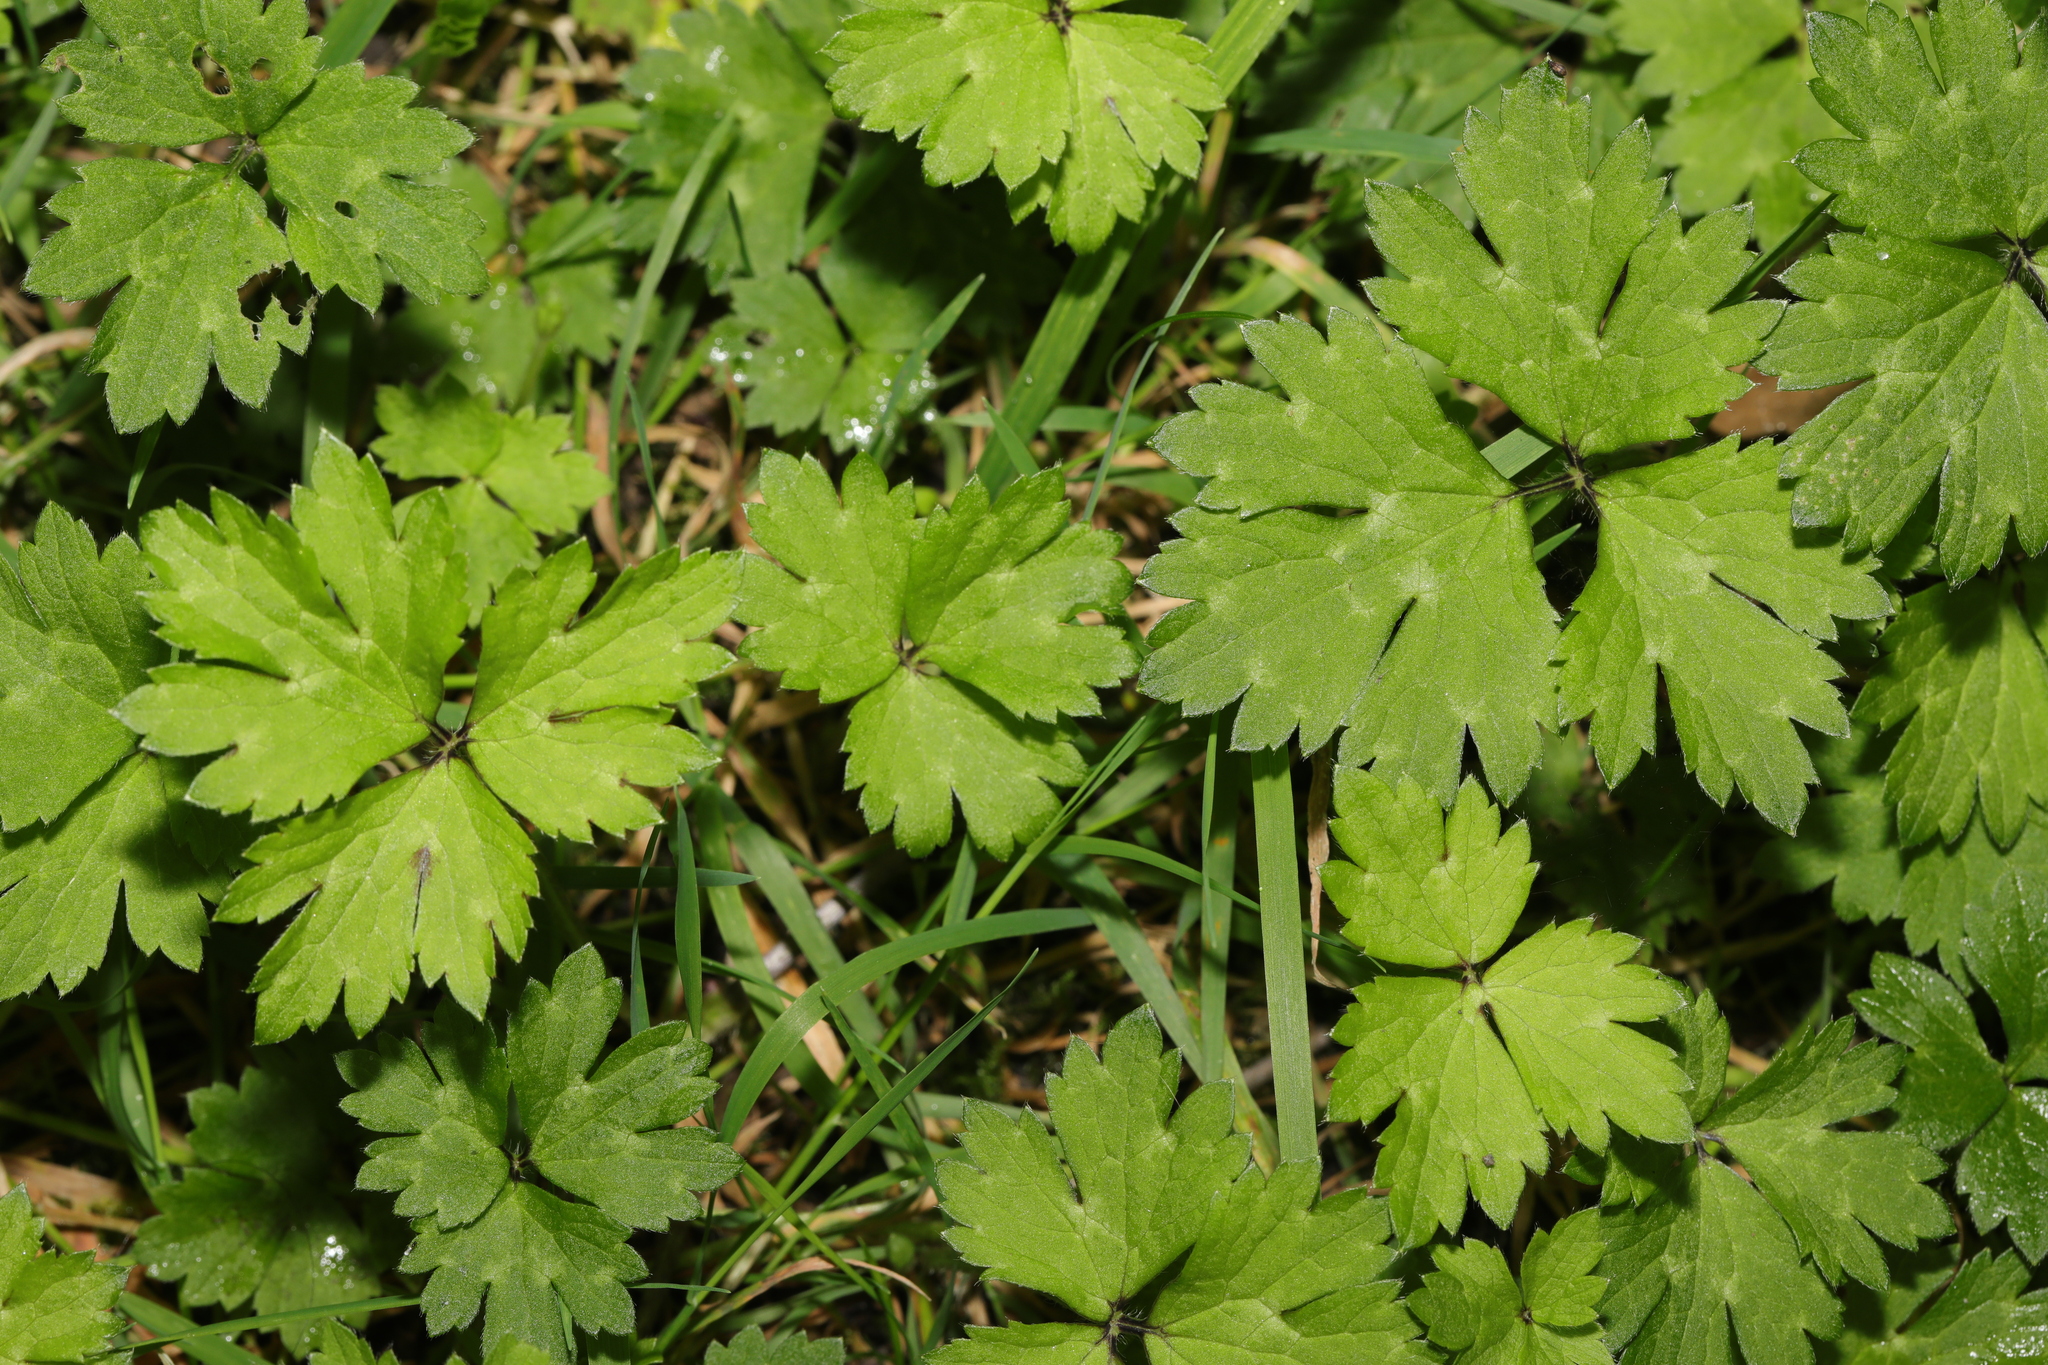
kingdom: Plantae
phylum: Tracheophyta
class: Magnoliopsida
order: Ranunculales
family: Ranunculaceae
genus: Ranunculus
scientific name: Ranunculus repens
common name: Creeping buttercup
